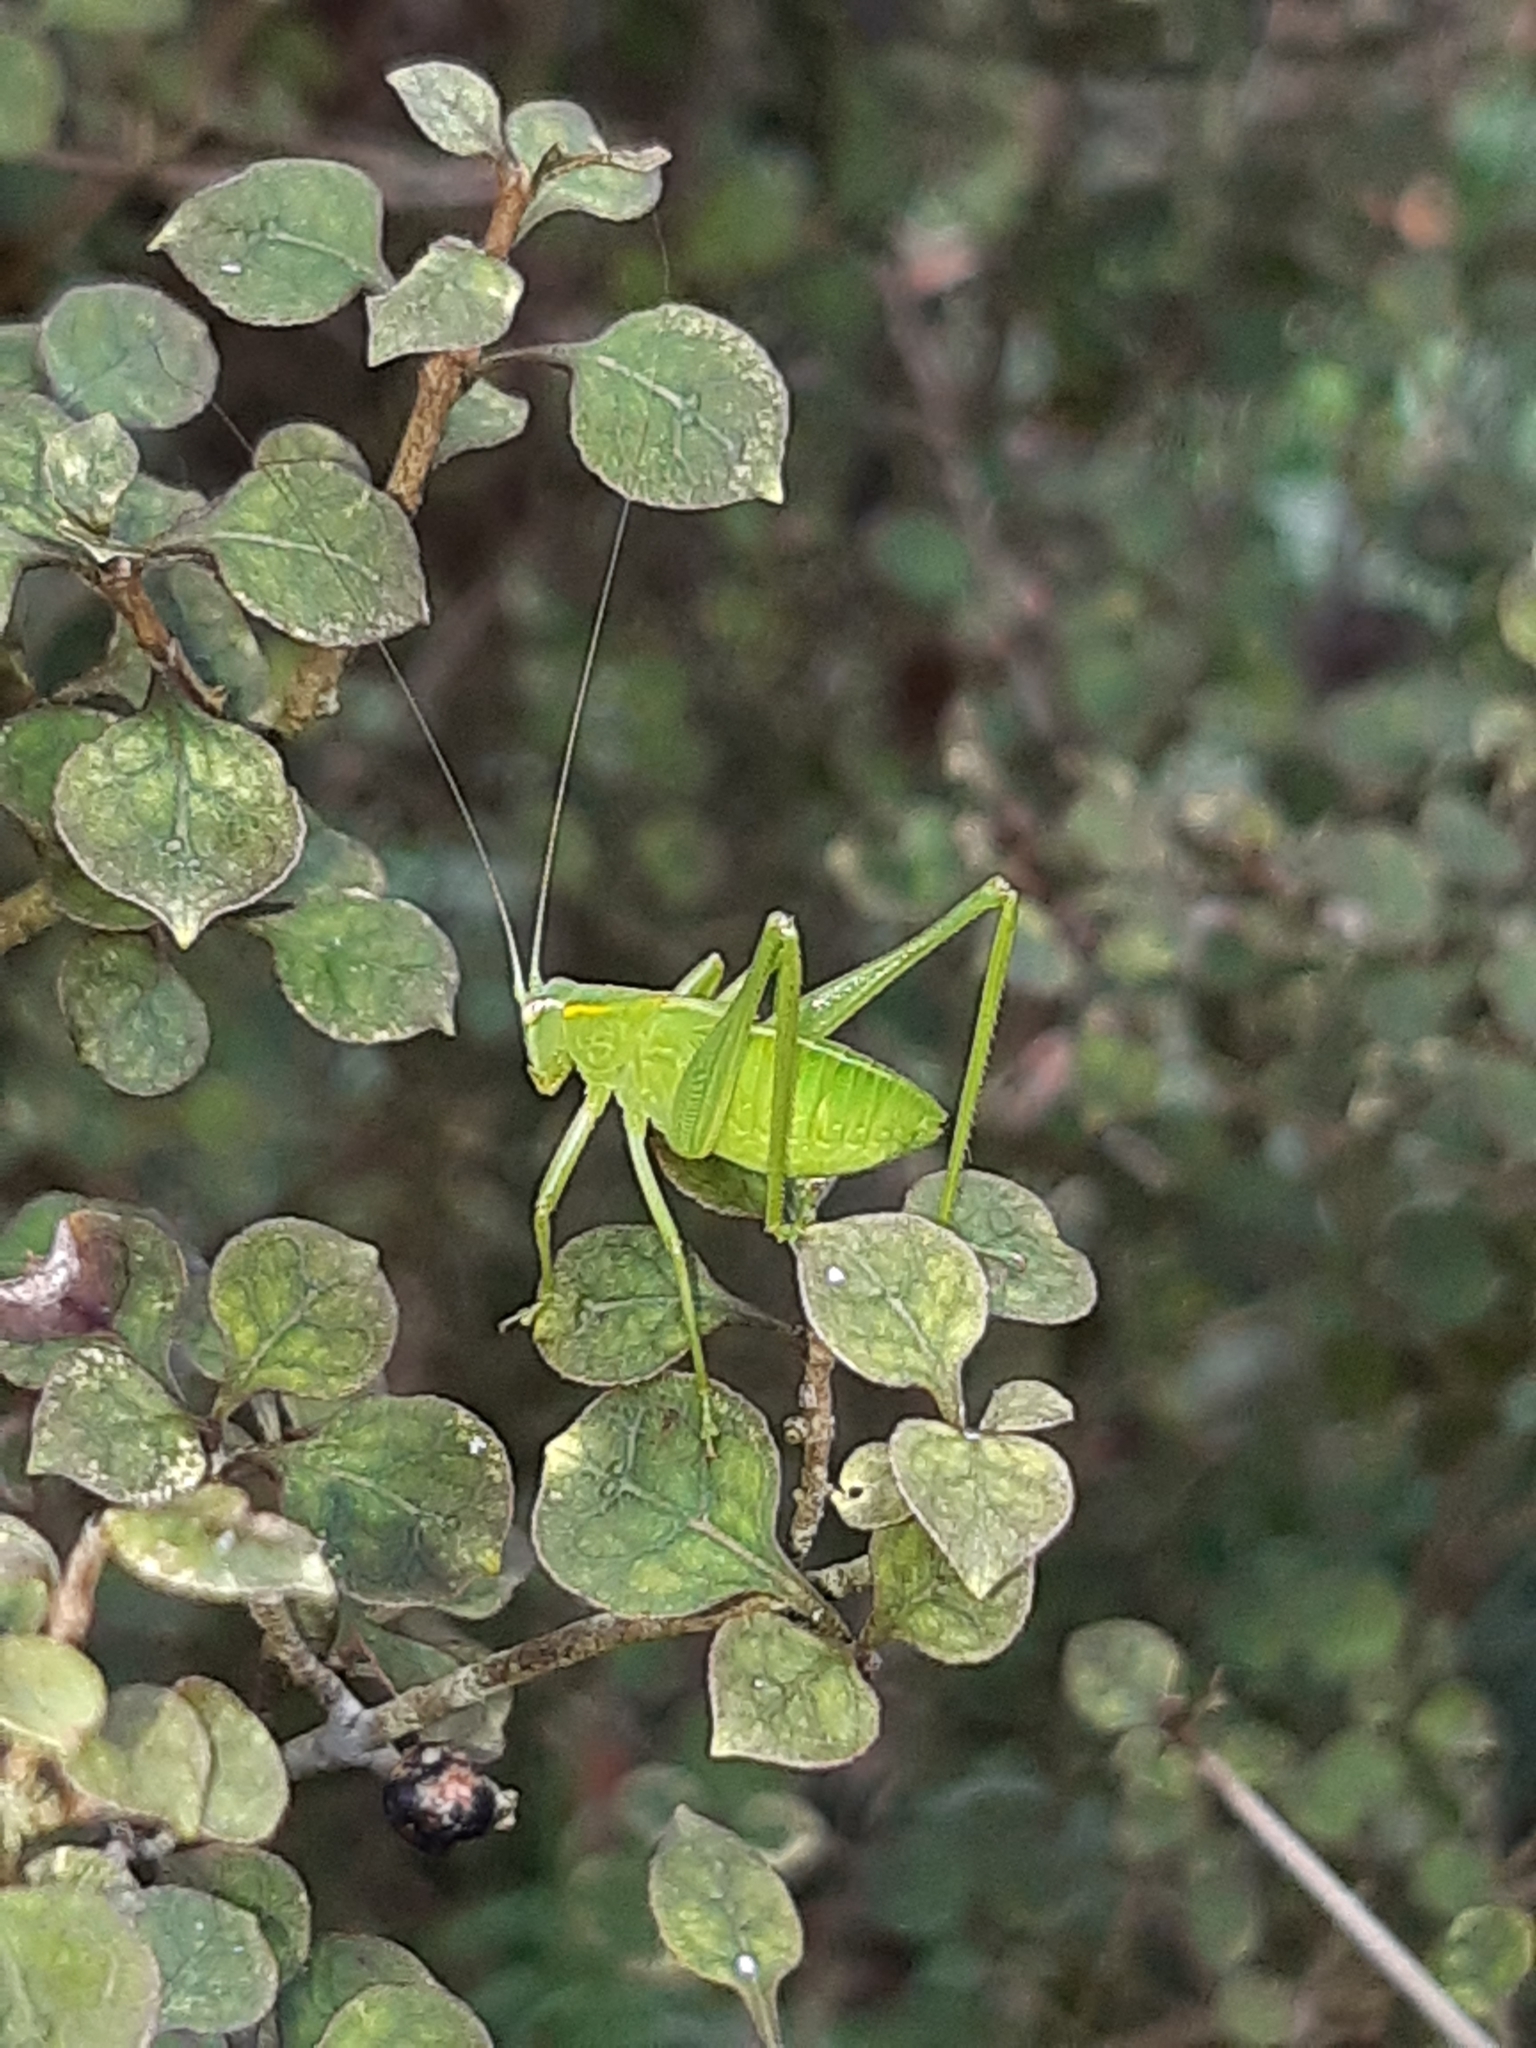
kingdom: Animalia
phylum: Arthropoda
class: Insecta
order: Orthoptera
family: Tettigoniidae
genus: Caedicia
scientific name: Caedicia simplex
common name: Common garden katydid
